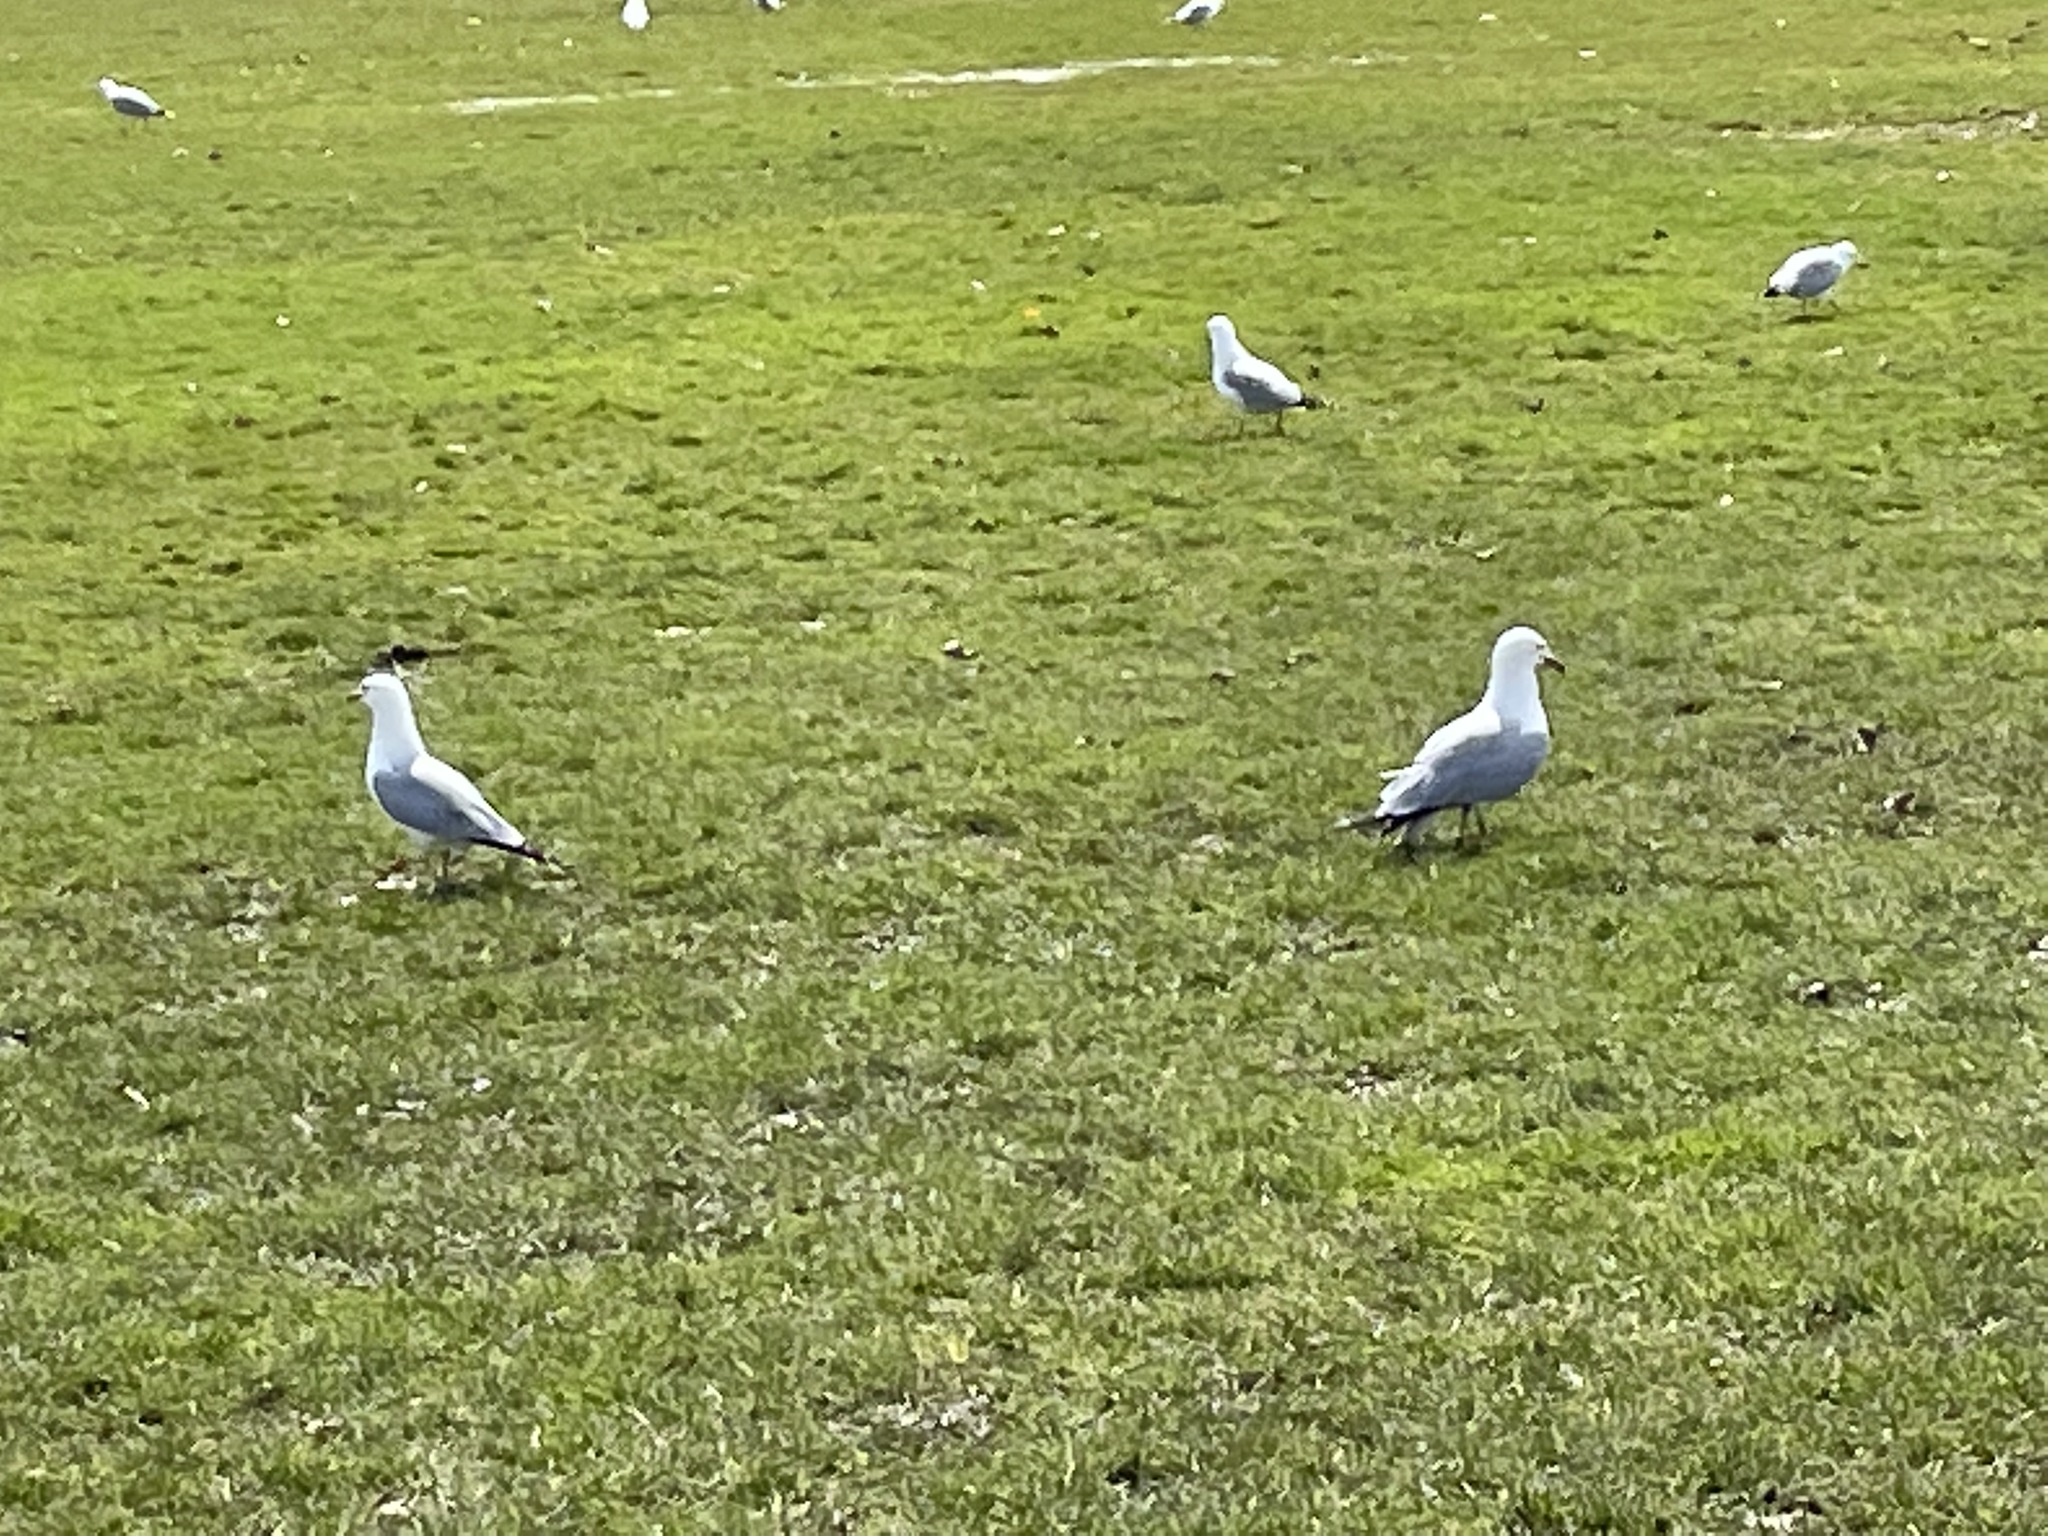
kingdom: Animalia
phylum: Chordata
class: Aves
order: Charadriiformes
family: Laridae
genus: Larus
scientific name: Larus delawarensis
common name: Ring-billed gull
